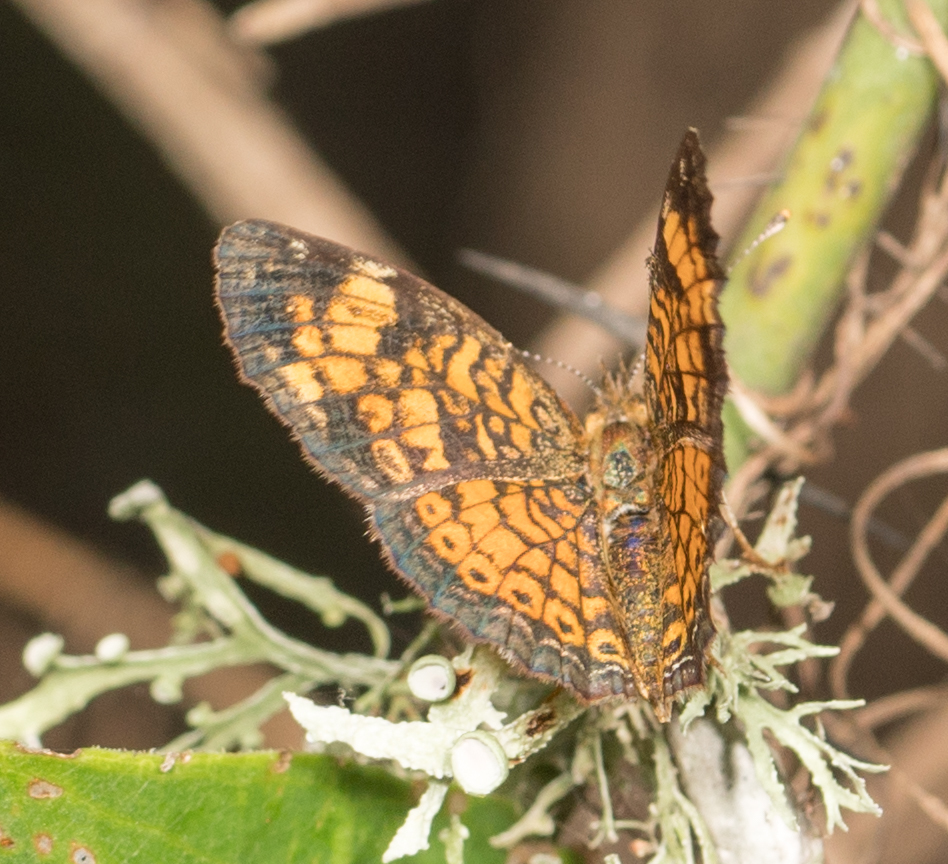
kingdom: Animalia
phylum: Arthropoda
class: Insecta
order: Lepidoptera
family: Nymphalidae
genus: Phyciodes
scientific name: Phyciodes tharos
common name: Pearl crescent
